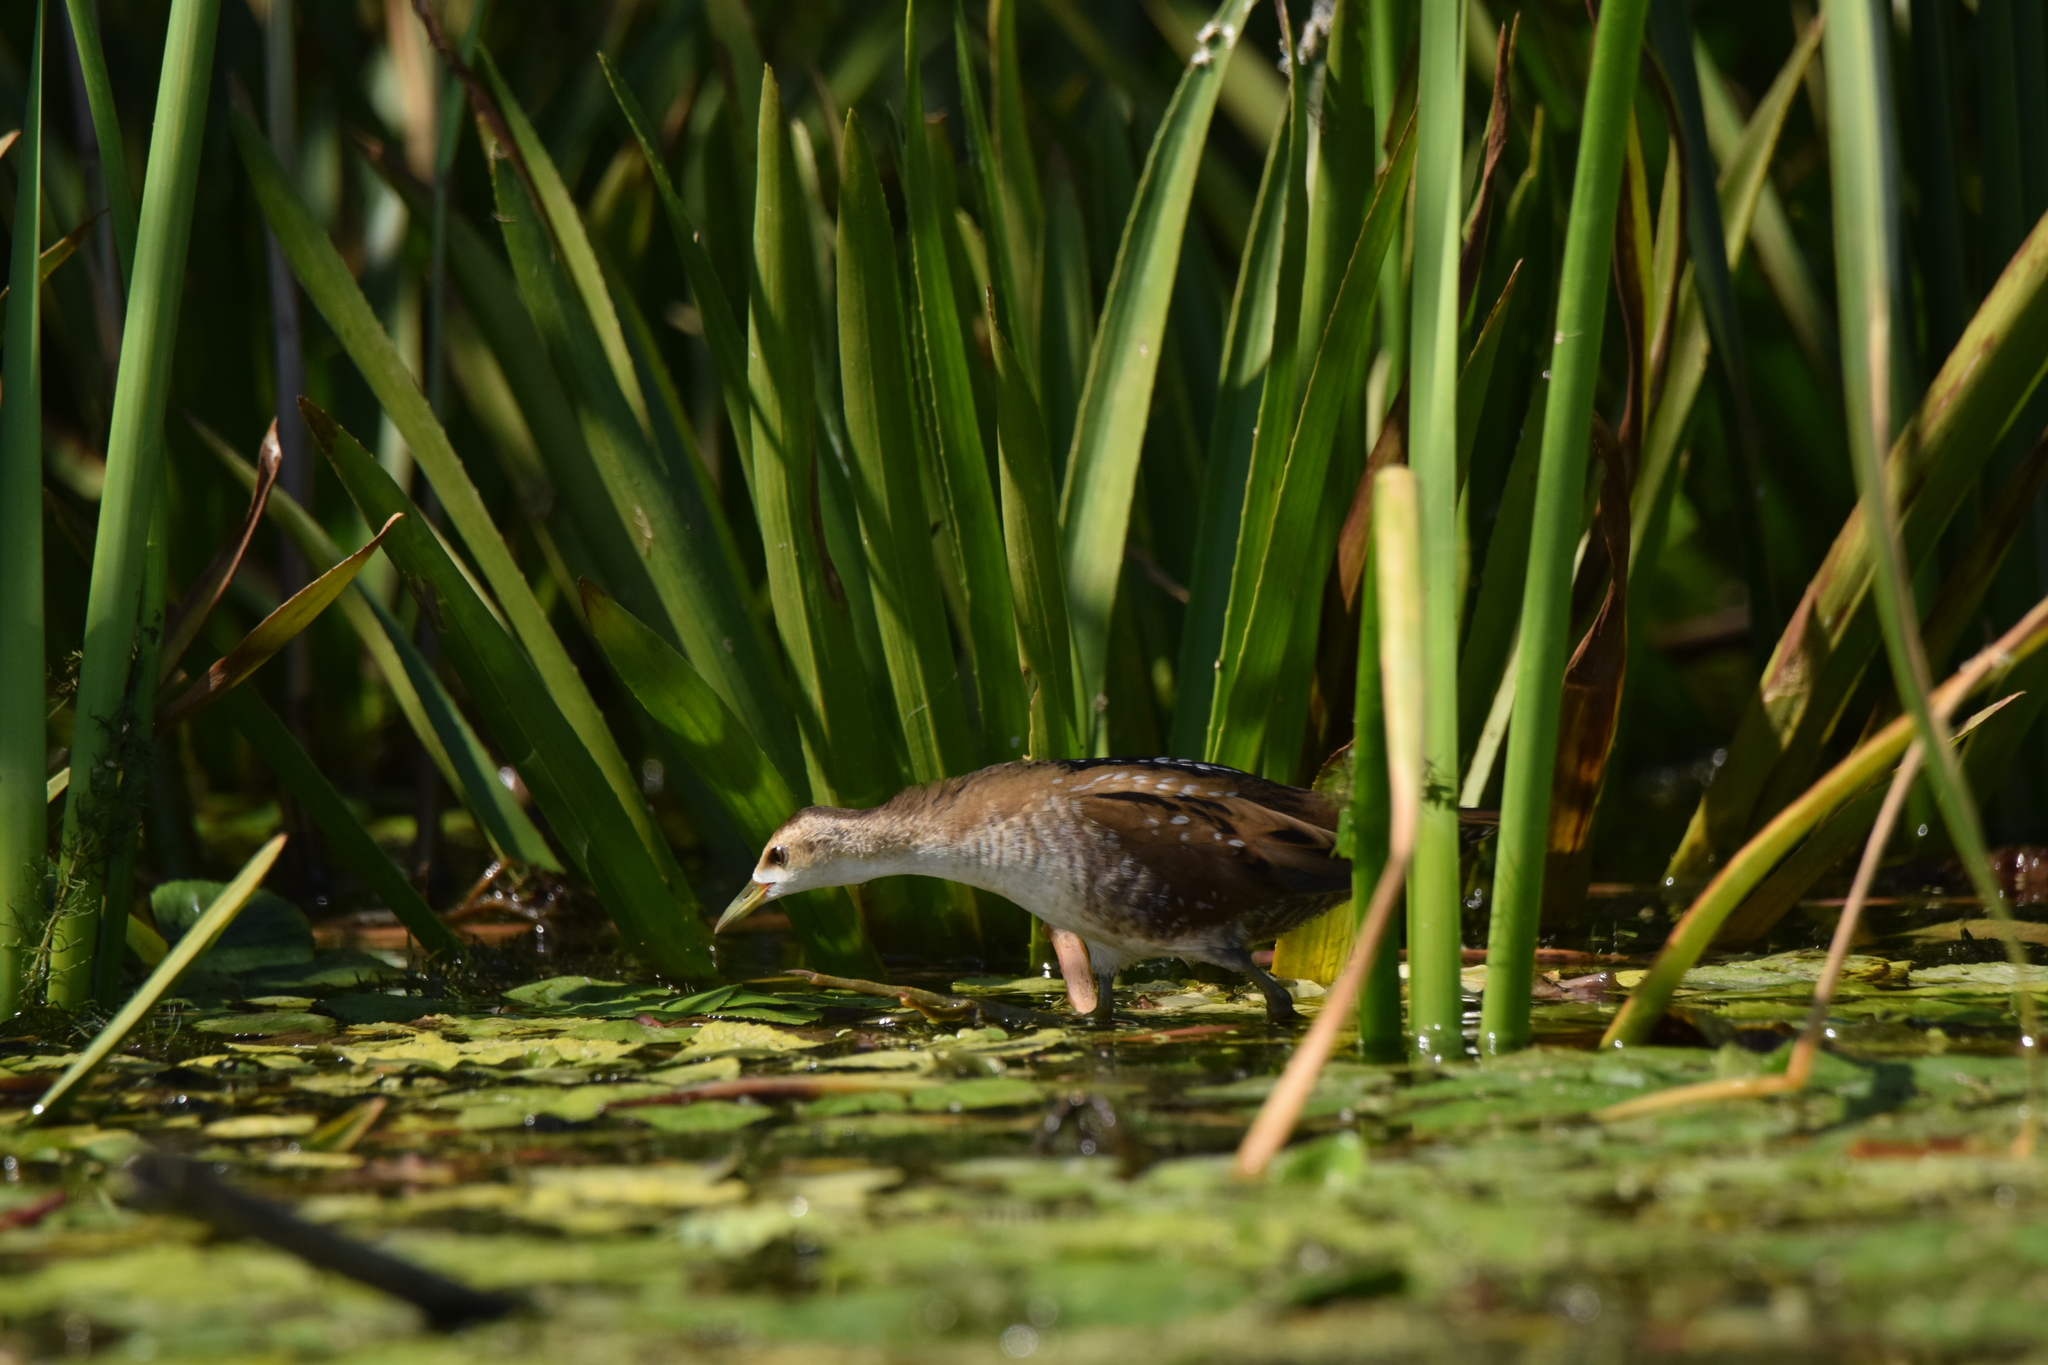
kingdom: Animalia
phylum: Chordata
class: Aves
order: Gruiformes
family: Rallidae
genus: Porzana
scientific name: Porzana parva
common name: Little crake
